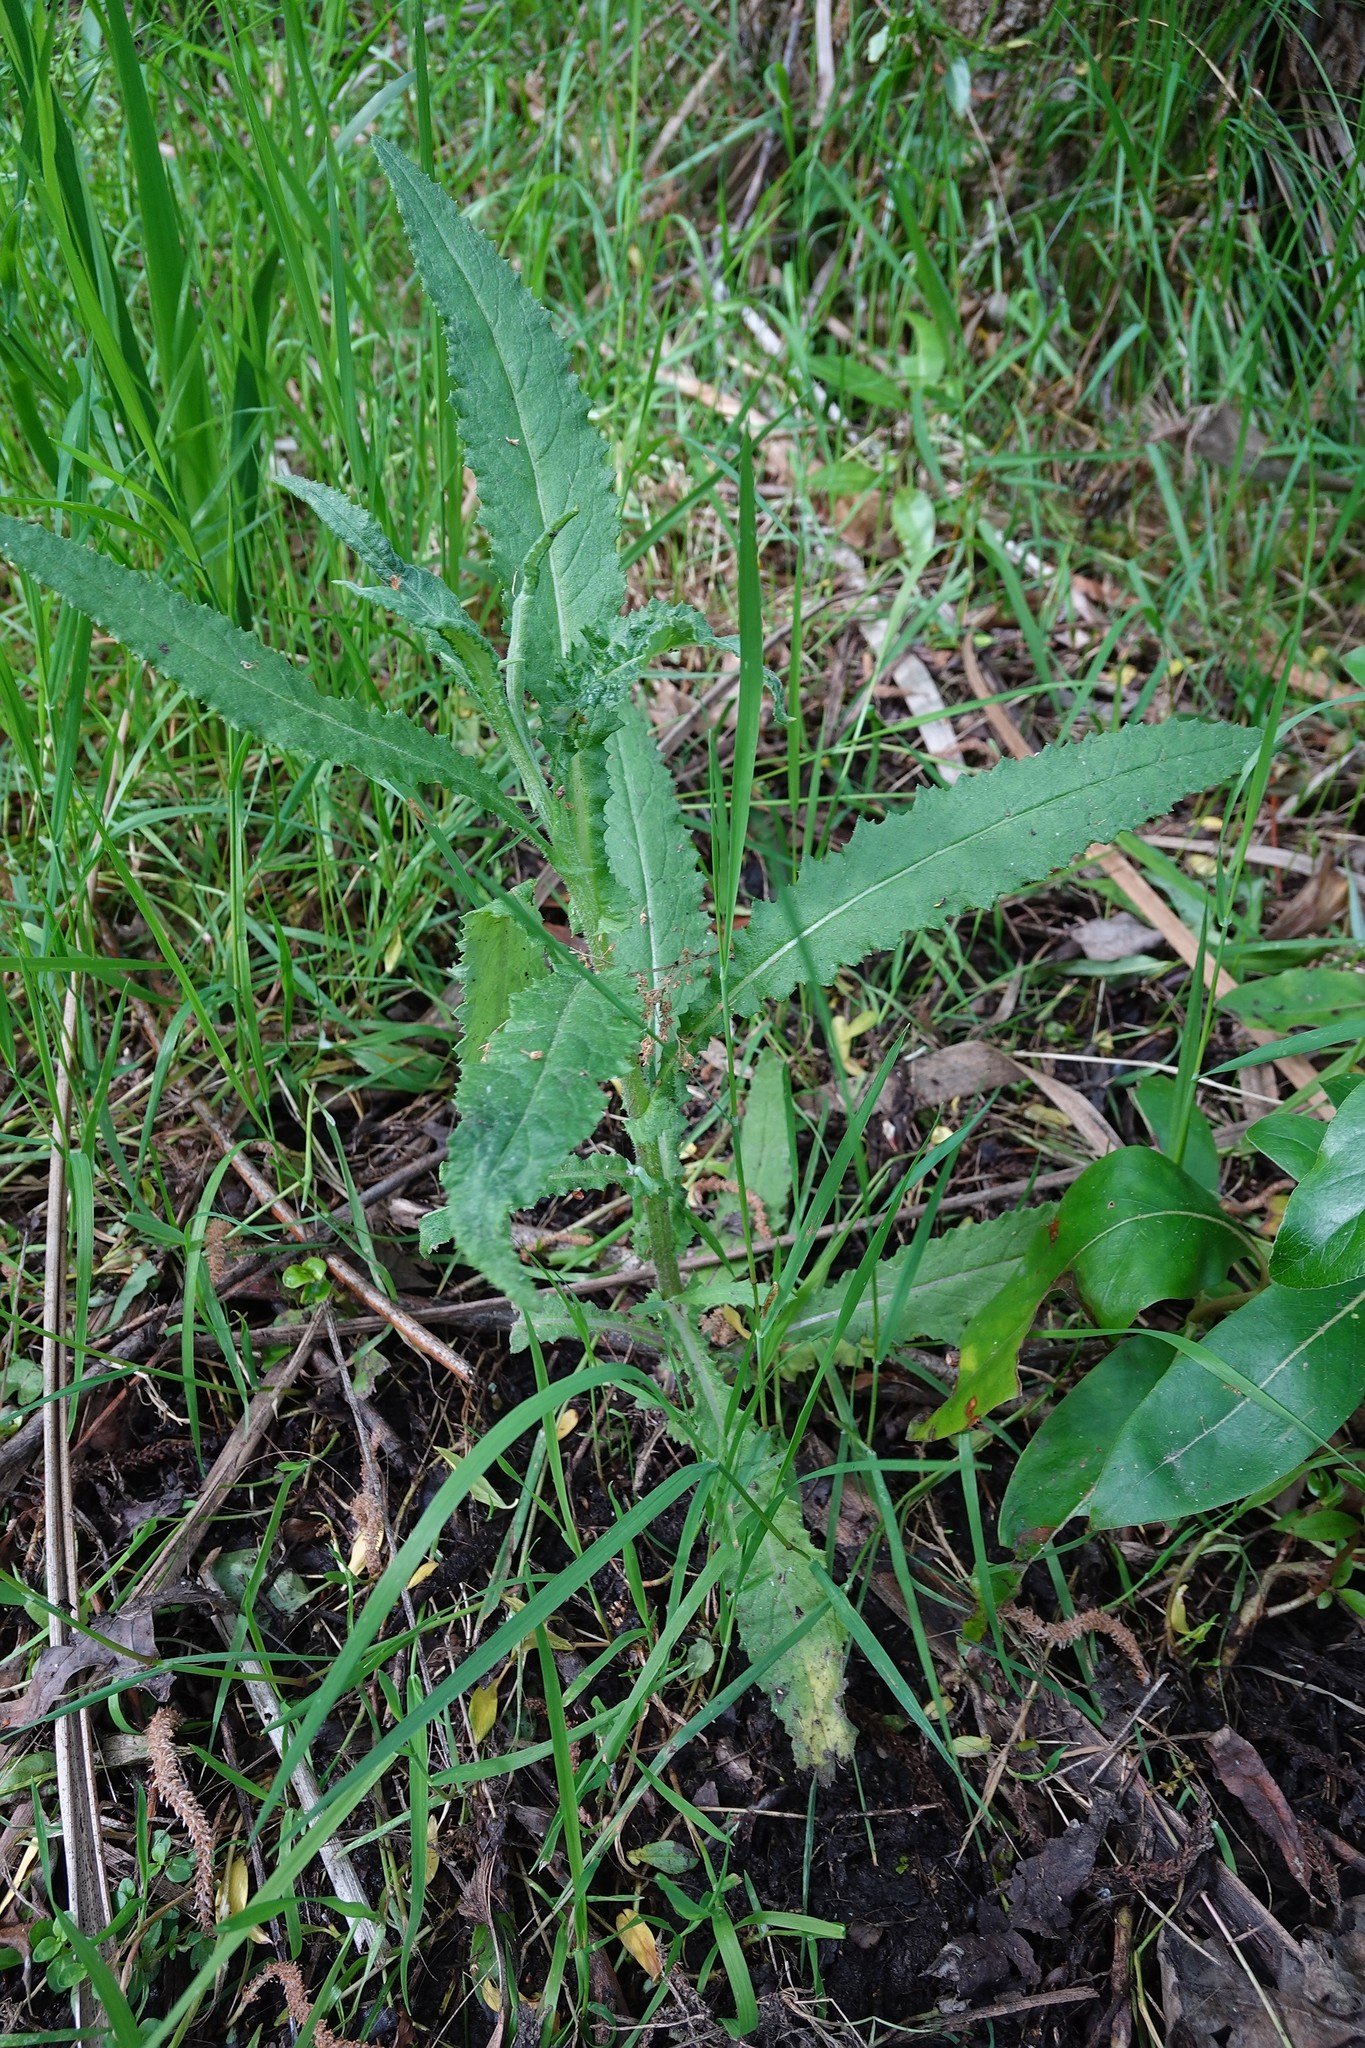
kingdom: Plantae
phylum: Tracheophyta
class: Magnoliopsida
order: Asterales
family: Asteraceae
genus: Senecio
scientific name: Senecio minimus
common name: Toothed fireweed
